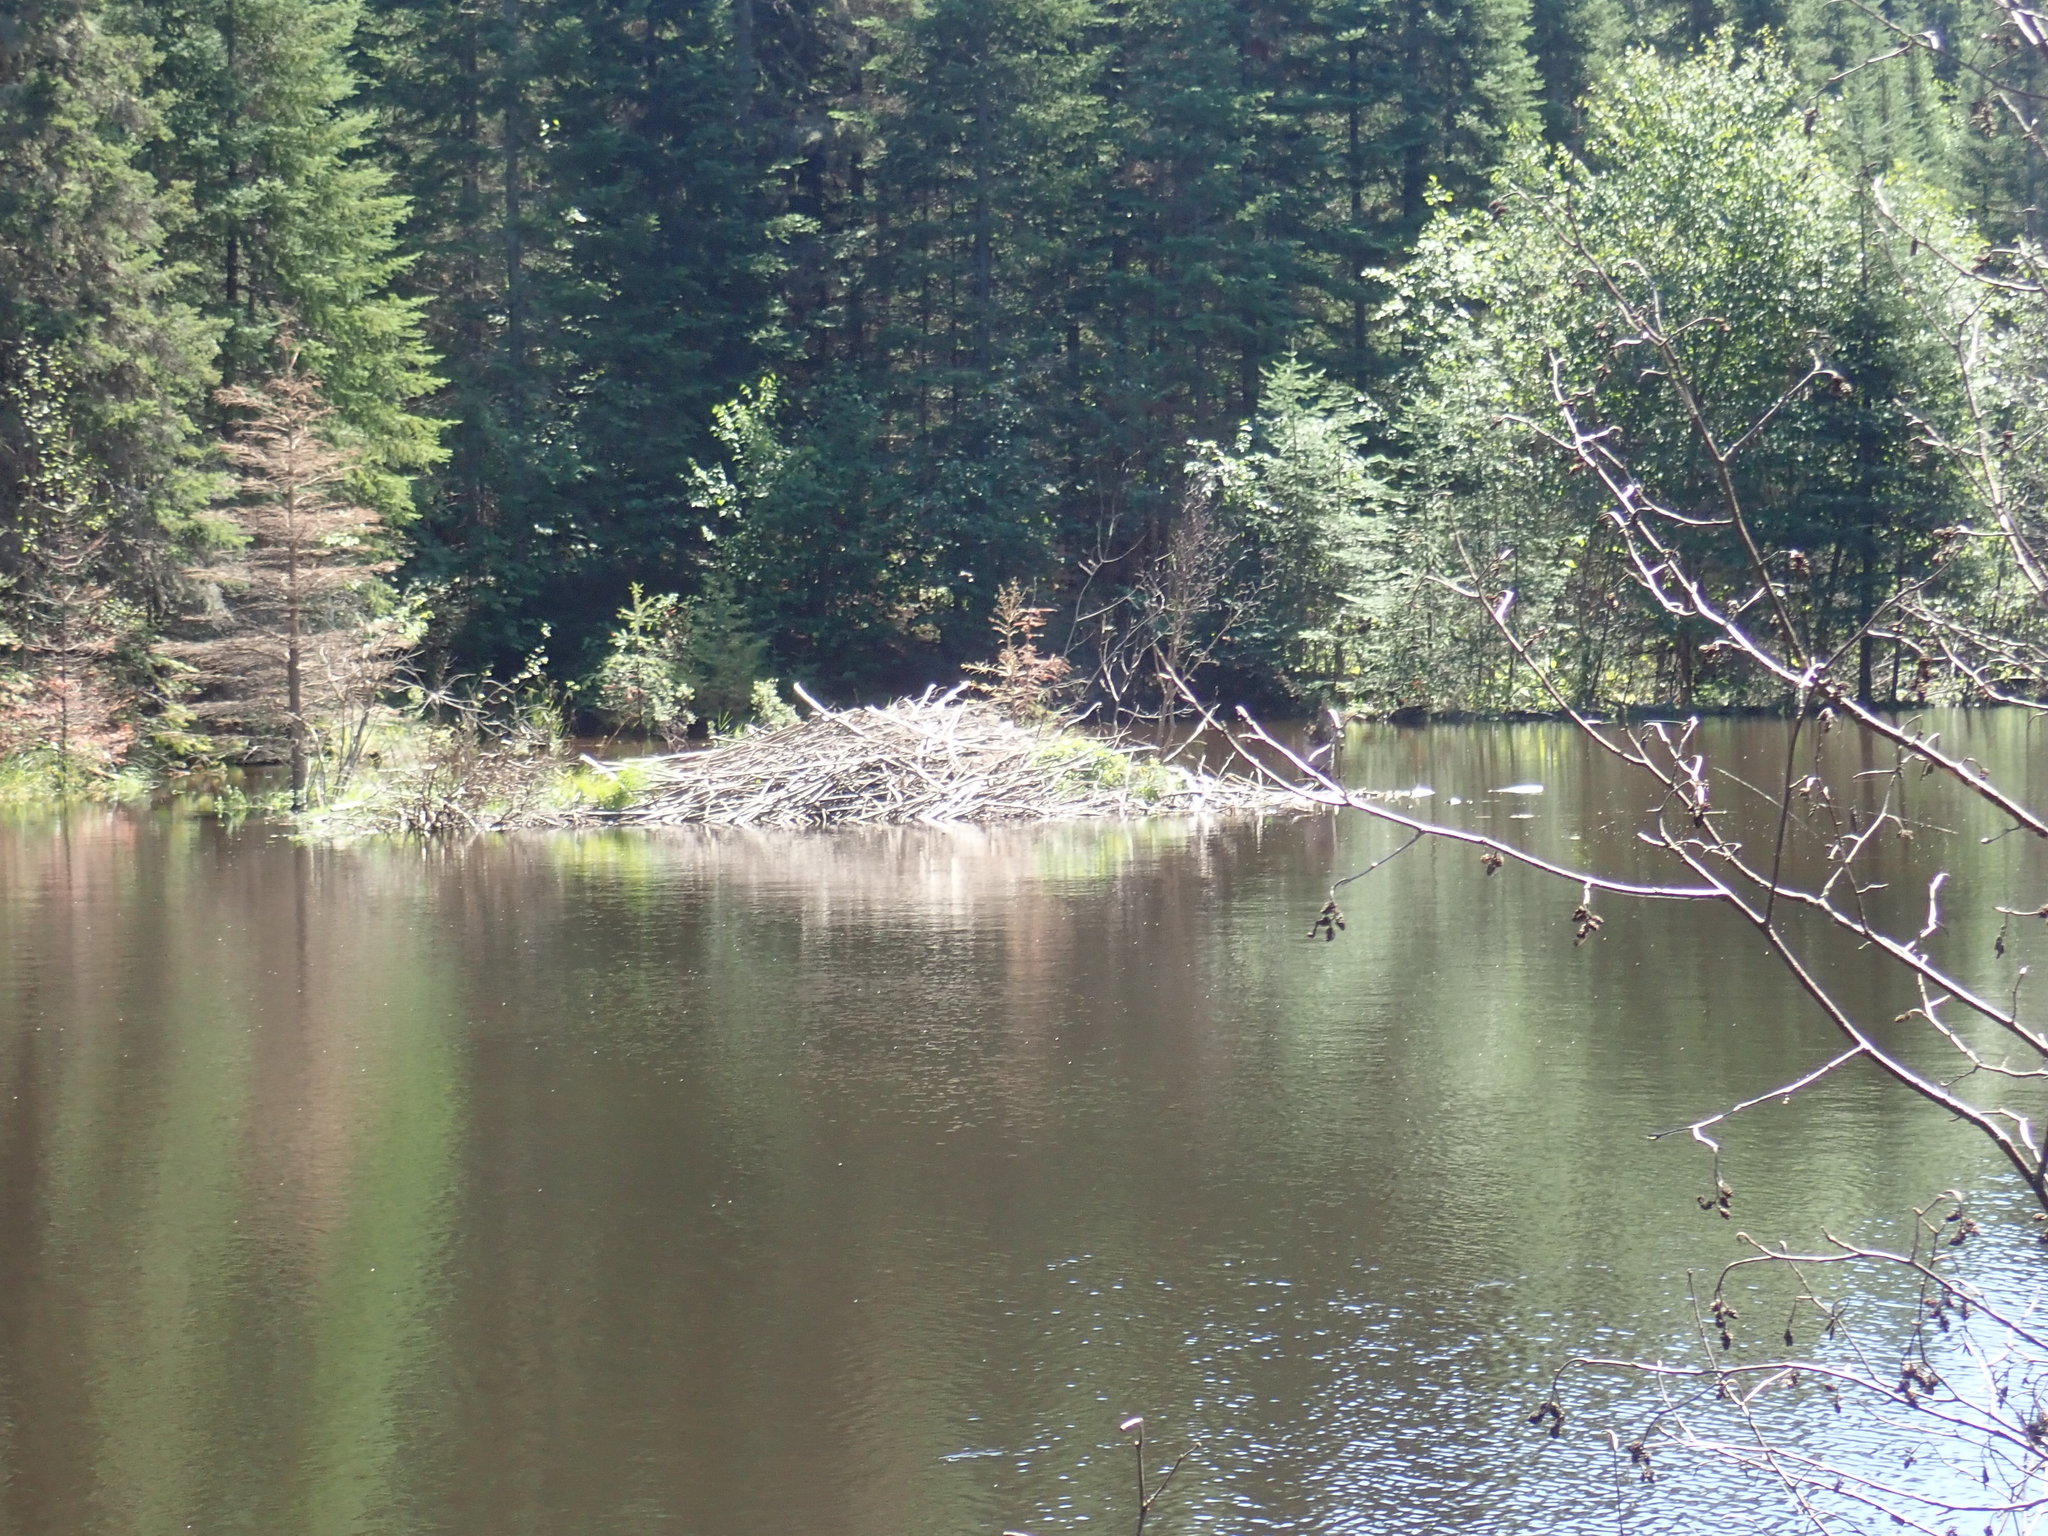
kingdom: Animalia
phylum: Chordata
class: Mammalia
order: Rodentia
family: Castoridae
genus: Castor
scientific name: Castor canadensis
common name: American beaver
